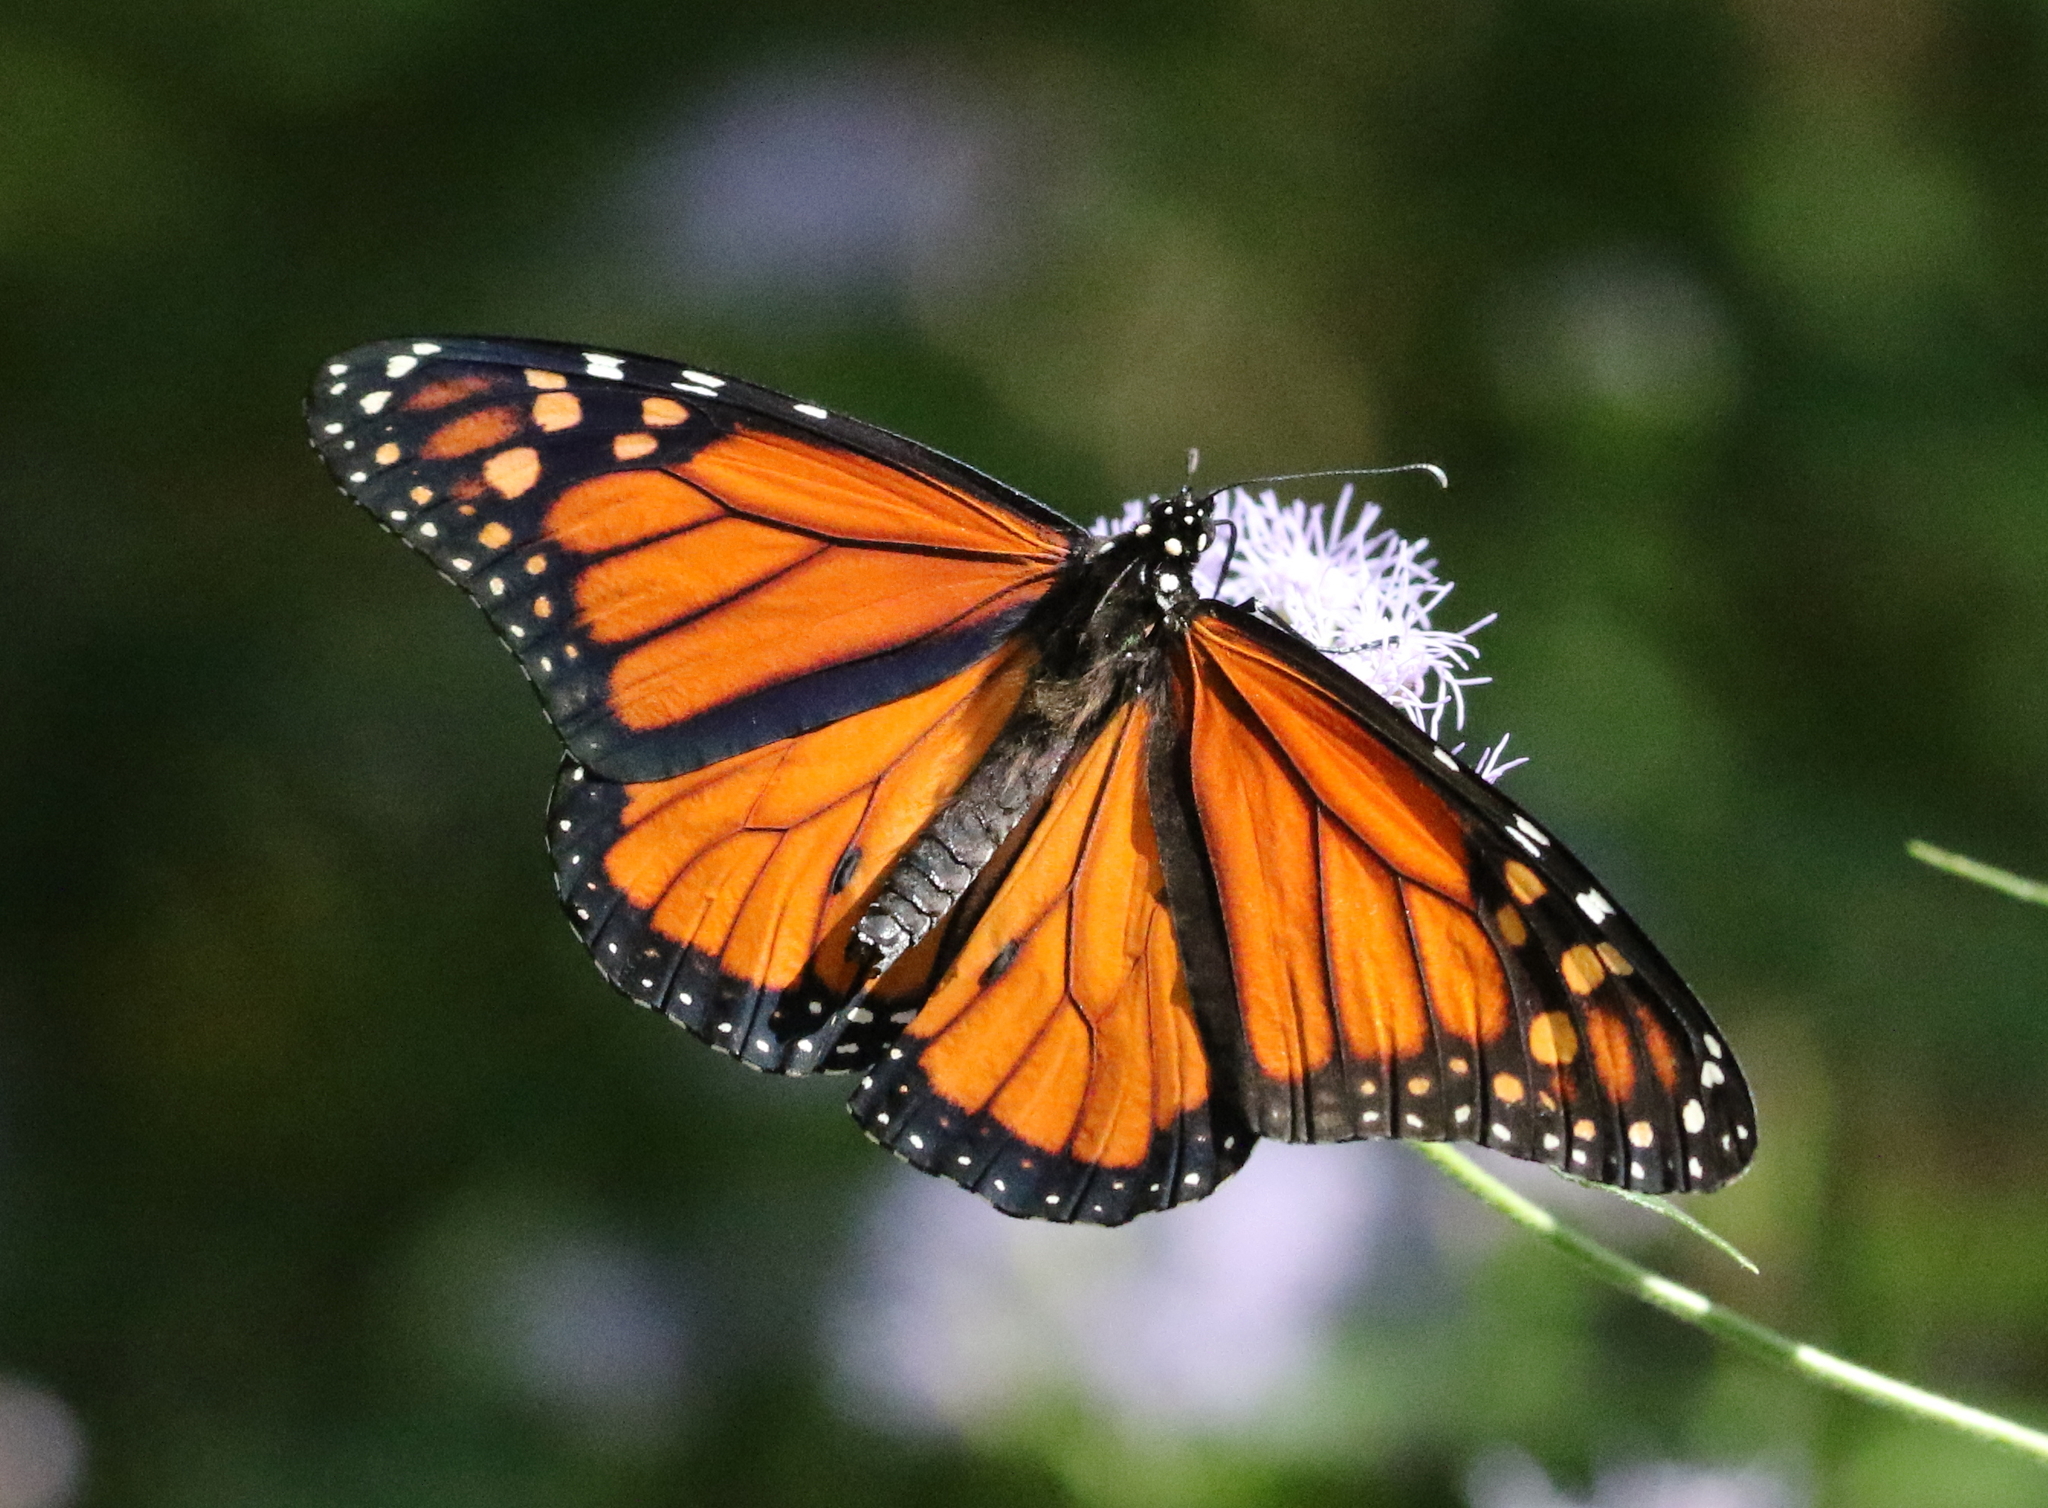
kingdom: Animalia
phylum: Arthropoda
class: Insecta
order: Lepidoptera
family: Nymphalidae
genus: Danaus
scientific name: Danaus plexippus
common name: Monarch
